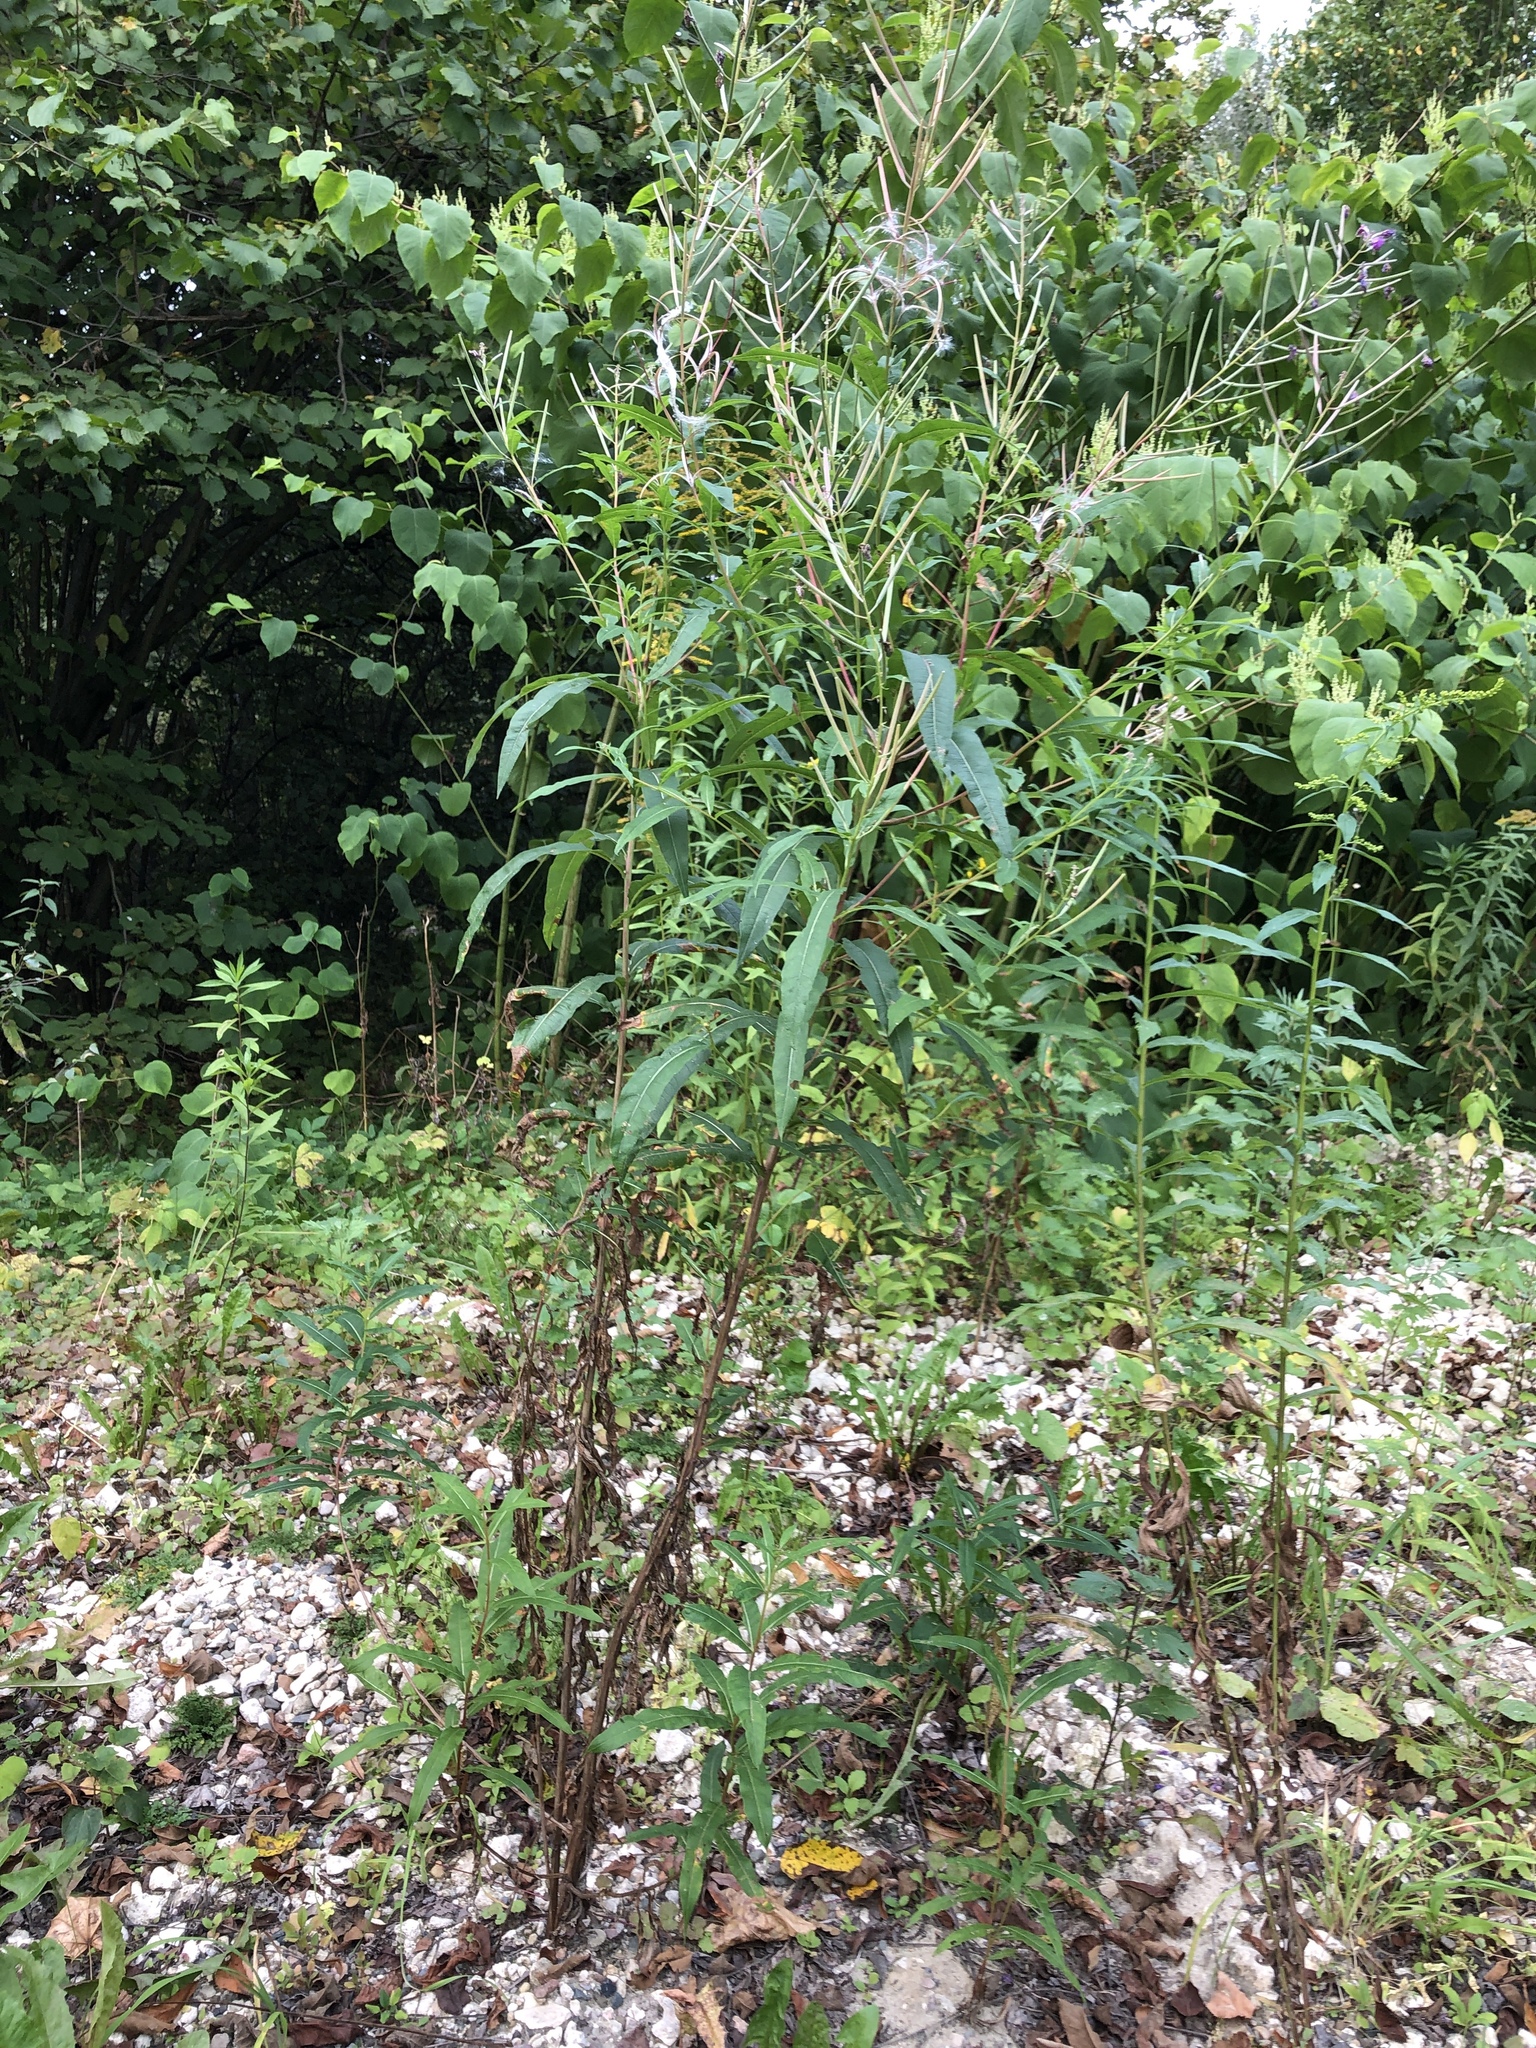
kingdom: Plantae
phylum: Tracheophyta
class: Magnoliopsida
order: Myrtales
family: Onagraceae
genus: Chamaenerion
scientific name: Chamaenerion angustifolium
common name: Fireweed
